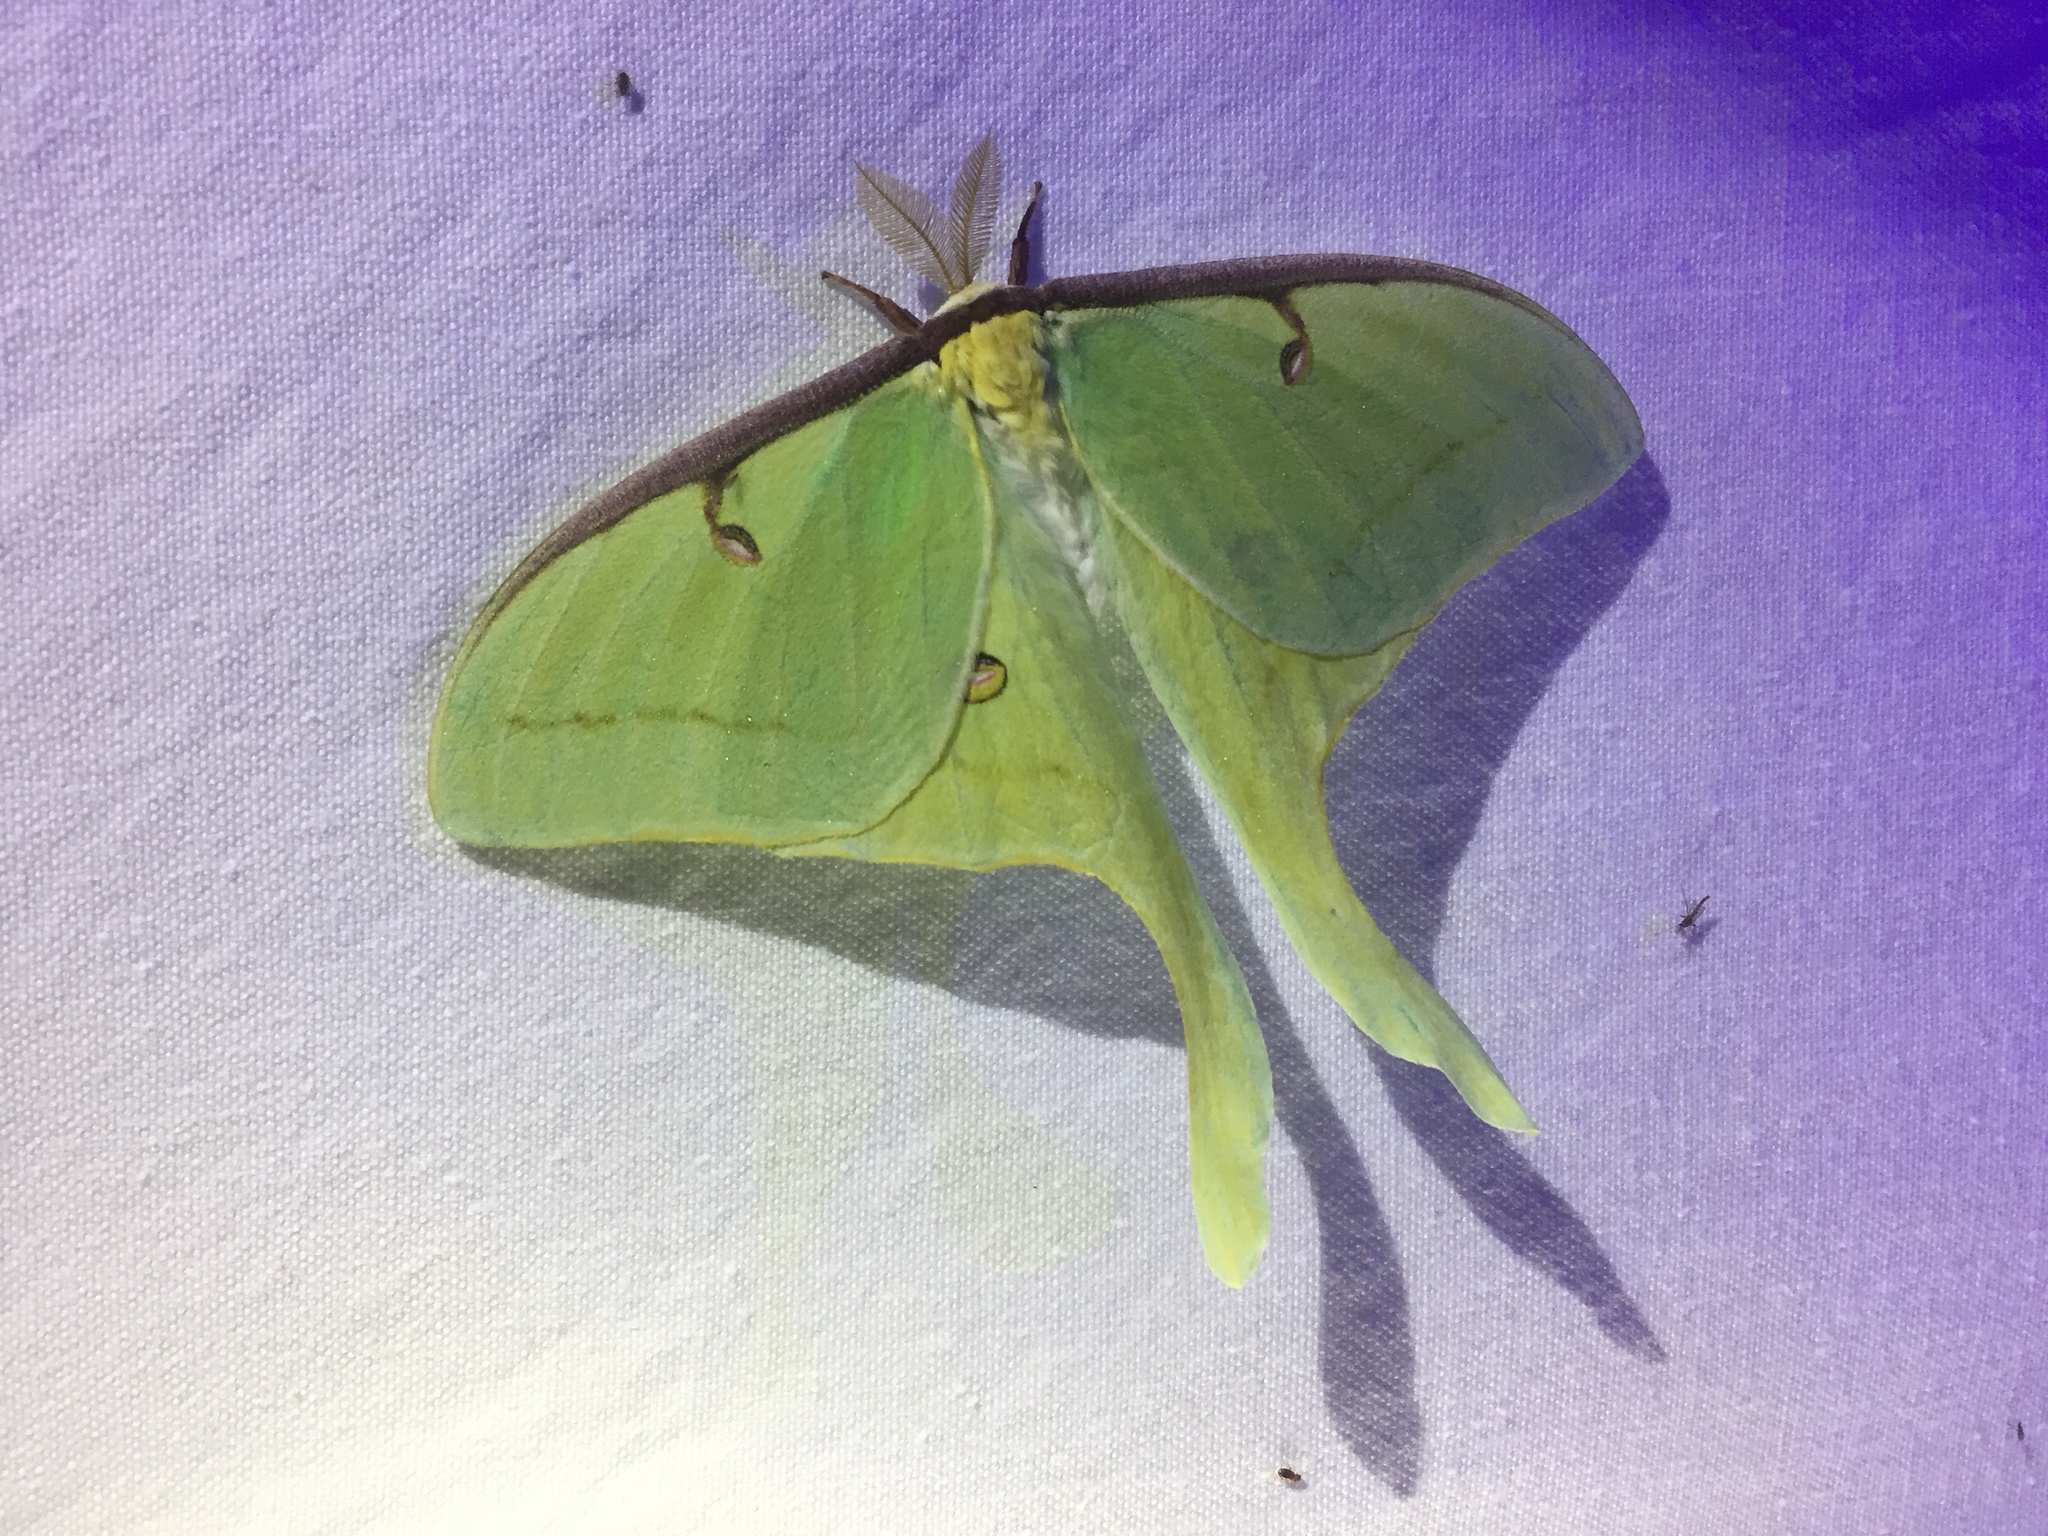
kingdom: Animalia
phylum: Arthropoda
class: Insecta
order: Lepidoptera
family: Saturniidae
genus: Actias
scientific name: Actias luna
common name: Luna moth
